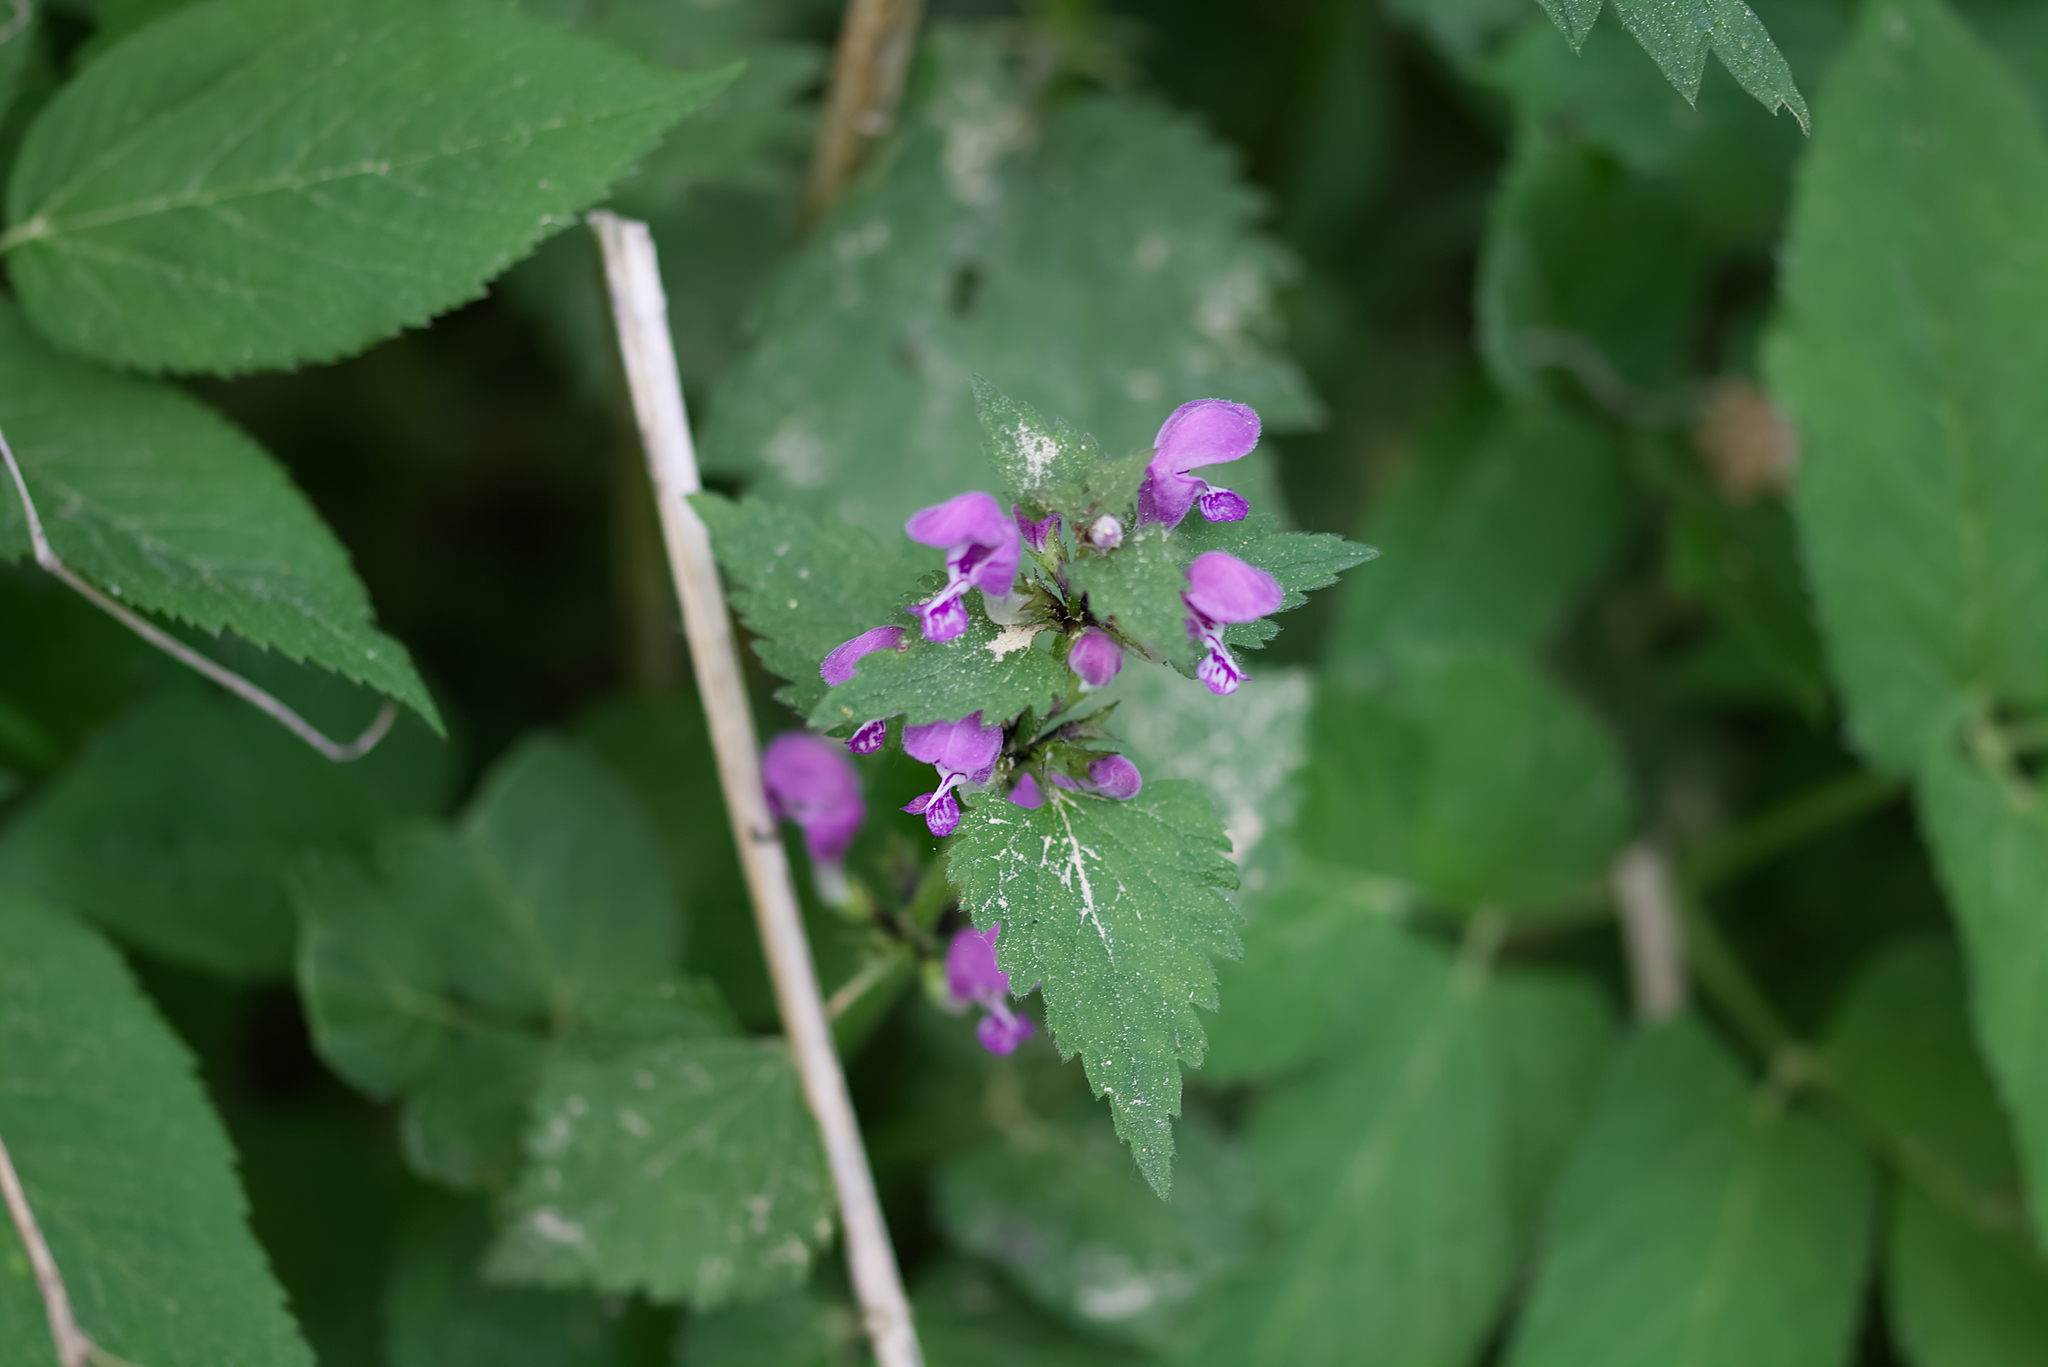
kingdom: Plantae
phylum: Tracheophyta
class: Magnoliopsida
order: Lamiales
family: Lamiaceae
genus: Lamium
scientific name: Lamium maculatum
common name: Spotted dead-nettle
